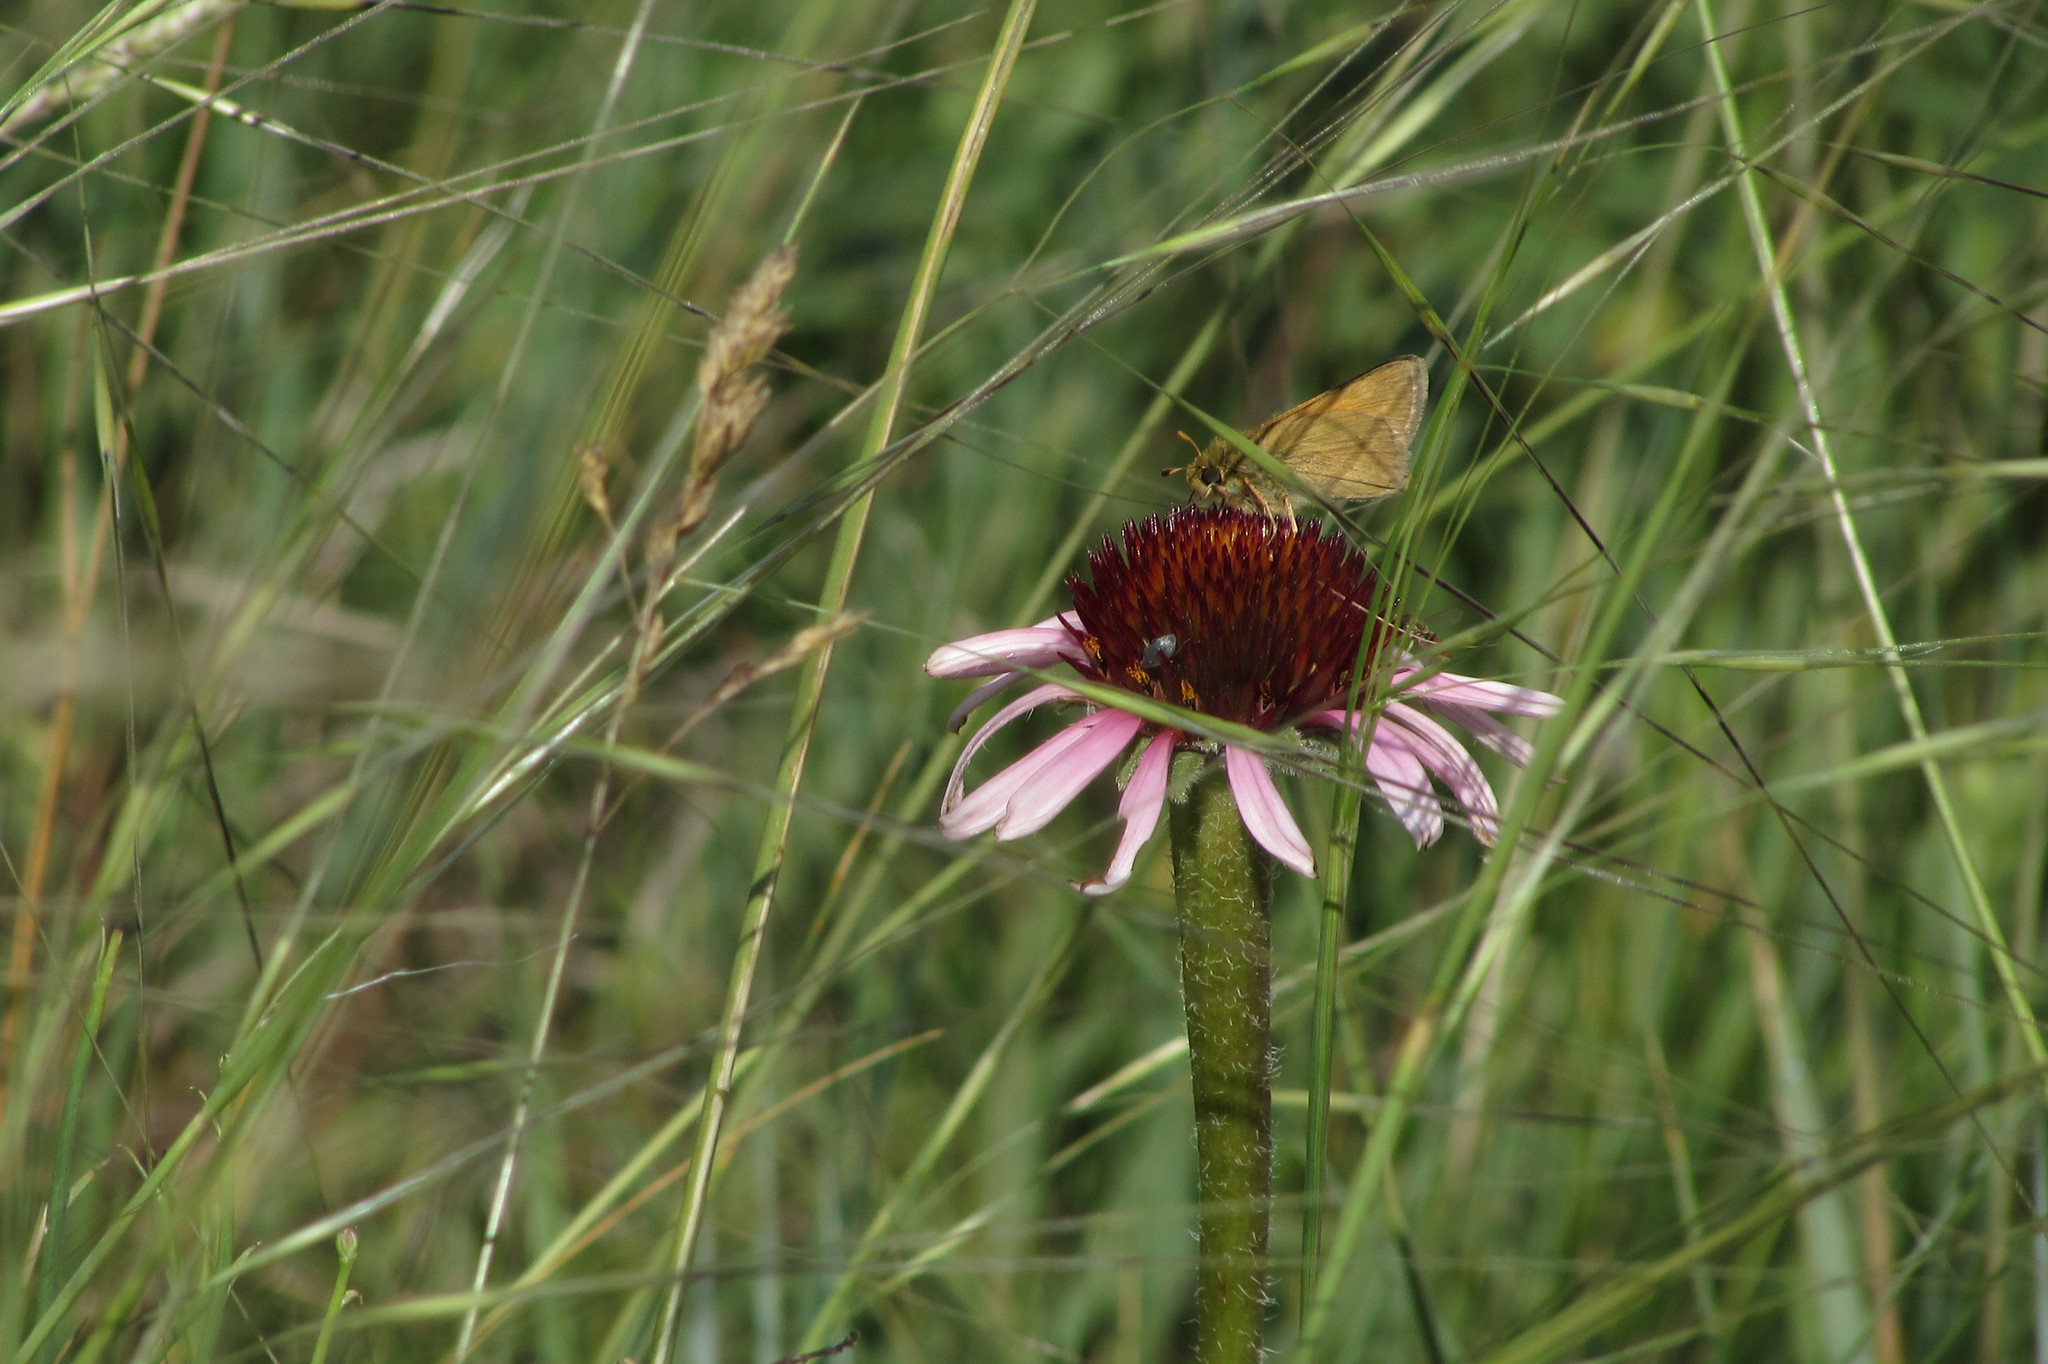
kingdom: Animalia
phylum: Arthropoda
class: Insecta
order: Lepidoptera
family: Hesperiidae
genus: Hesperia
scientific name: Hesperia dacotae
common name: Dakota skipper
